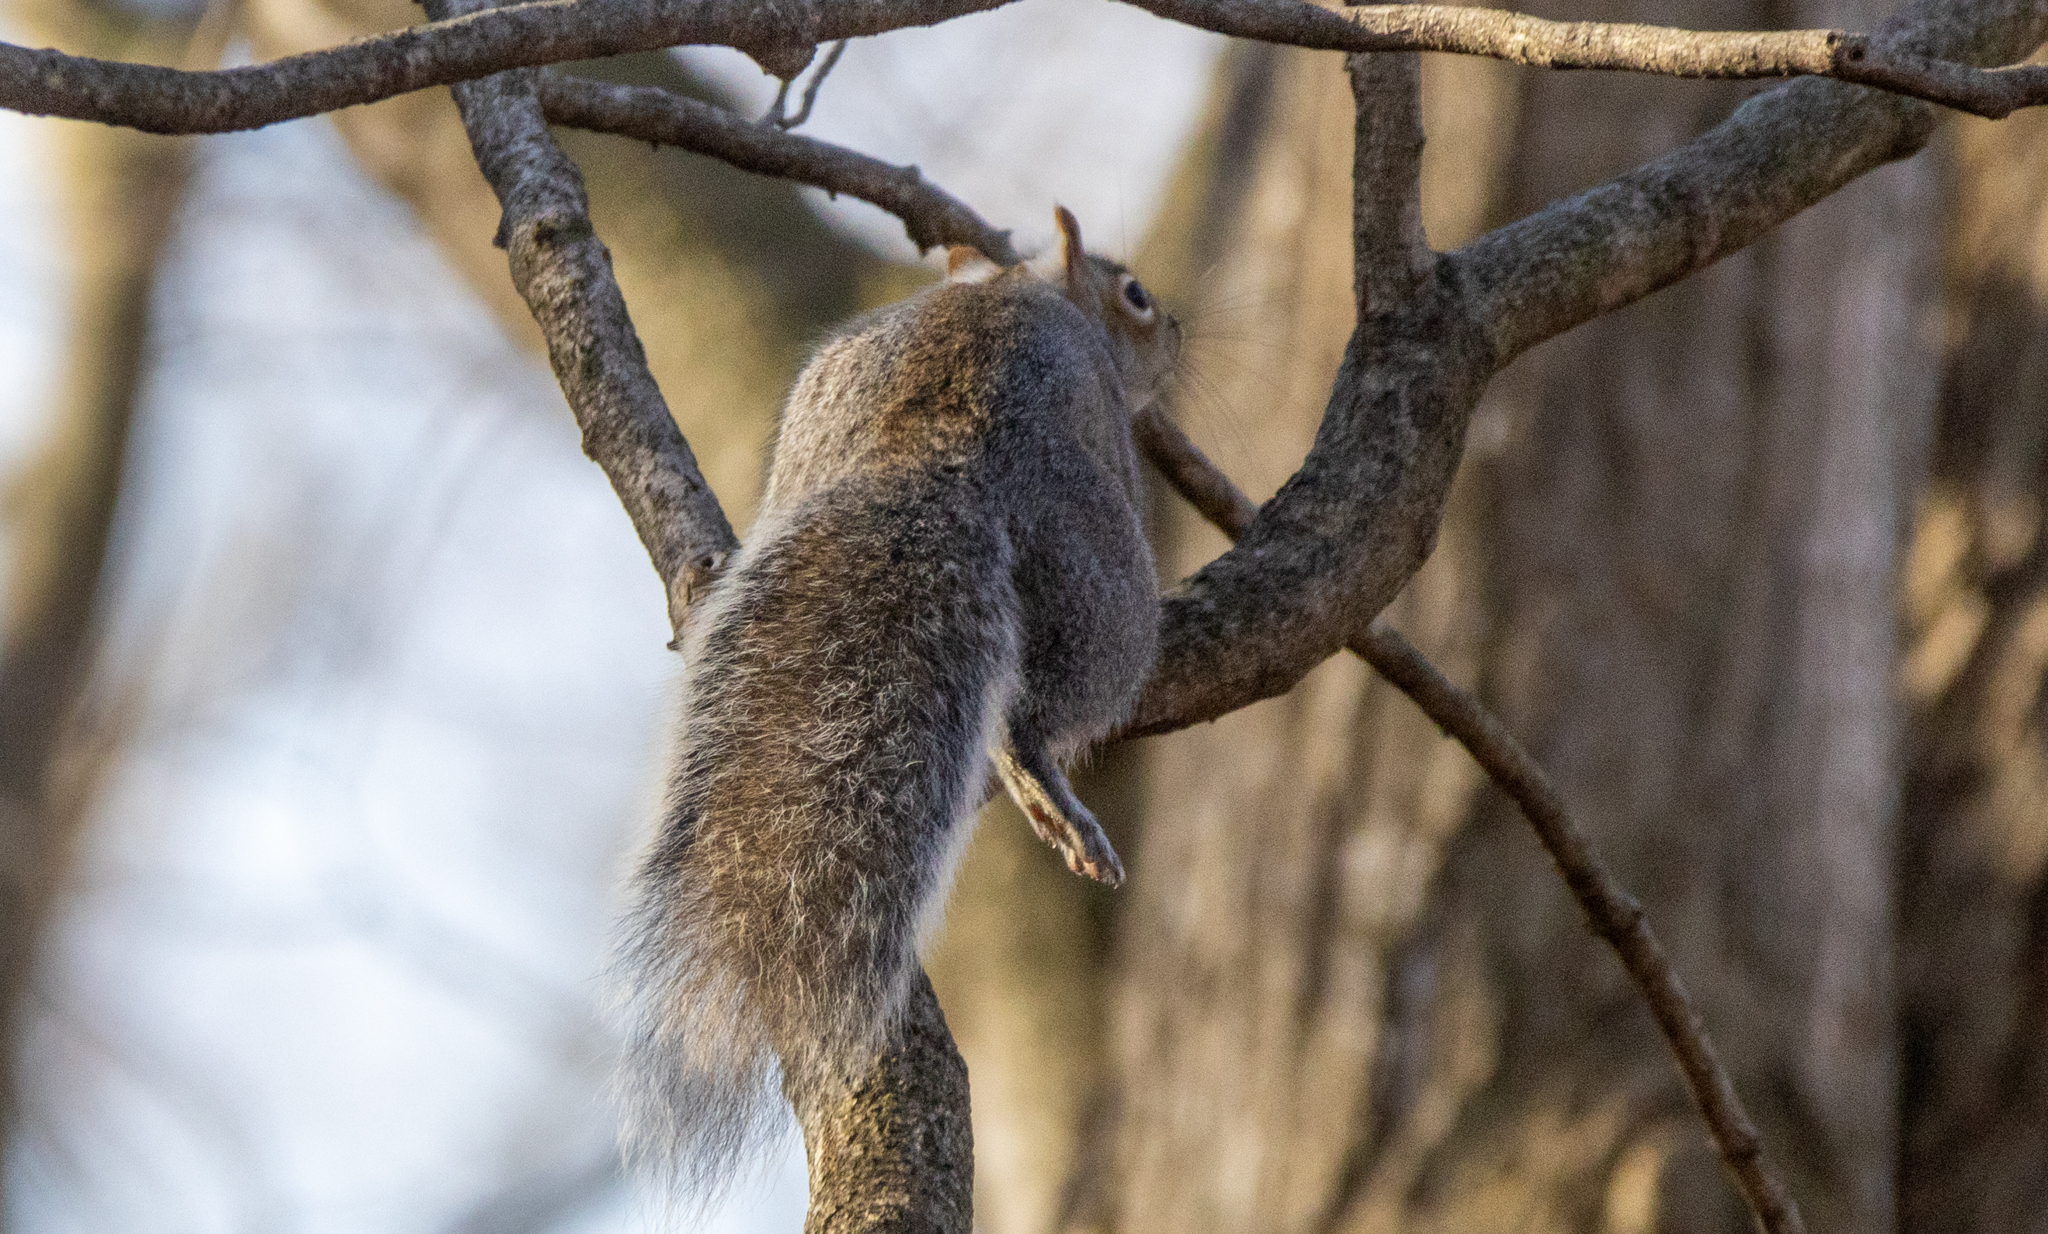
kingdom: Animalia
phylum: Chordata
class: Mammalia
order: Rodentia
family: Sciuridae
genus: Sciurus
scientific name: Sciurus carolinensis
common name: Eastern gray squirrel
